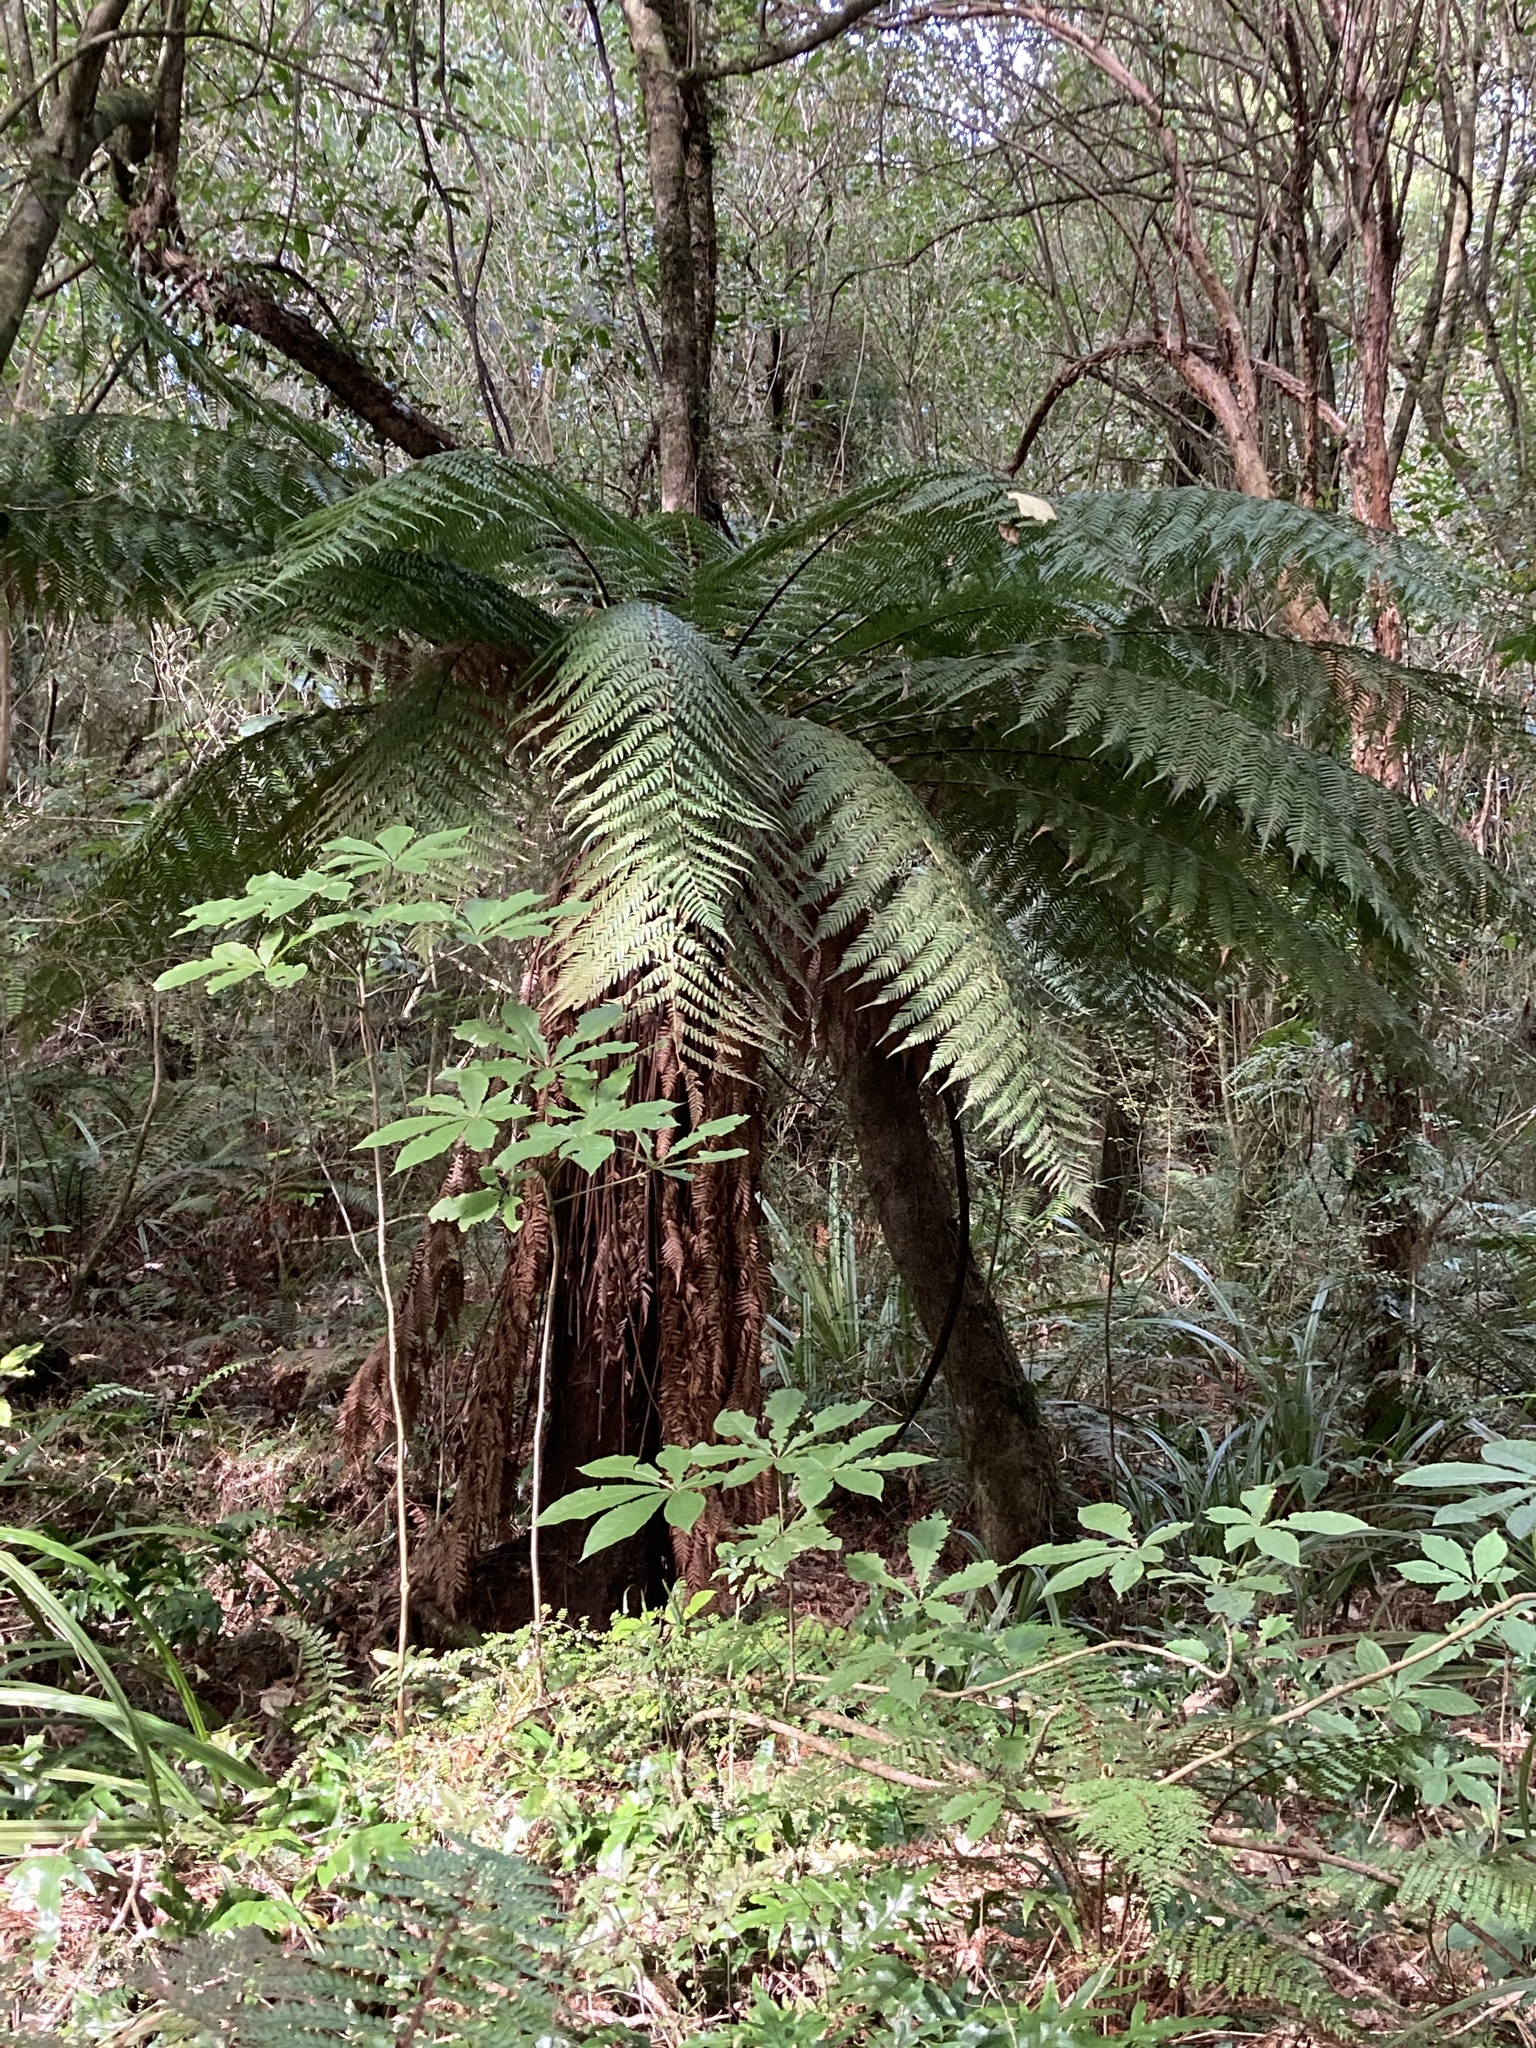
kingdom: Plantae
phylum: Tracheophyta
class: Polypodiopsida
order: Cyatheales
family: Dicksoniaceae
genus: Dicksonia
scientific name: Dicksonia fibrosa
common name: Golden tree fern
